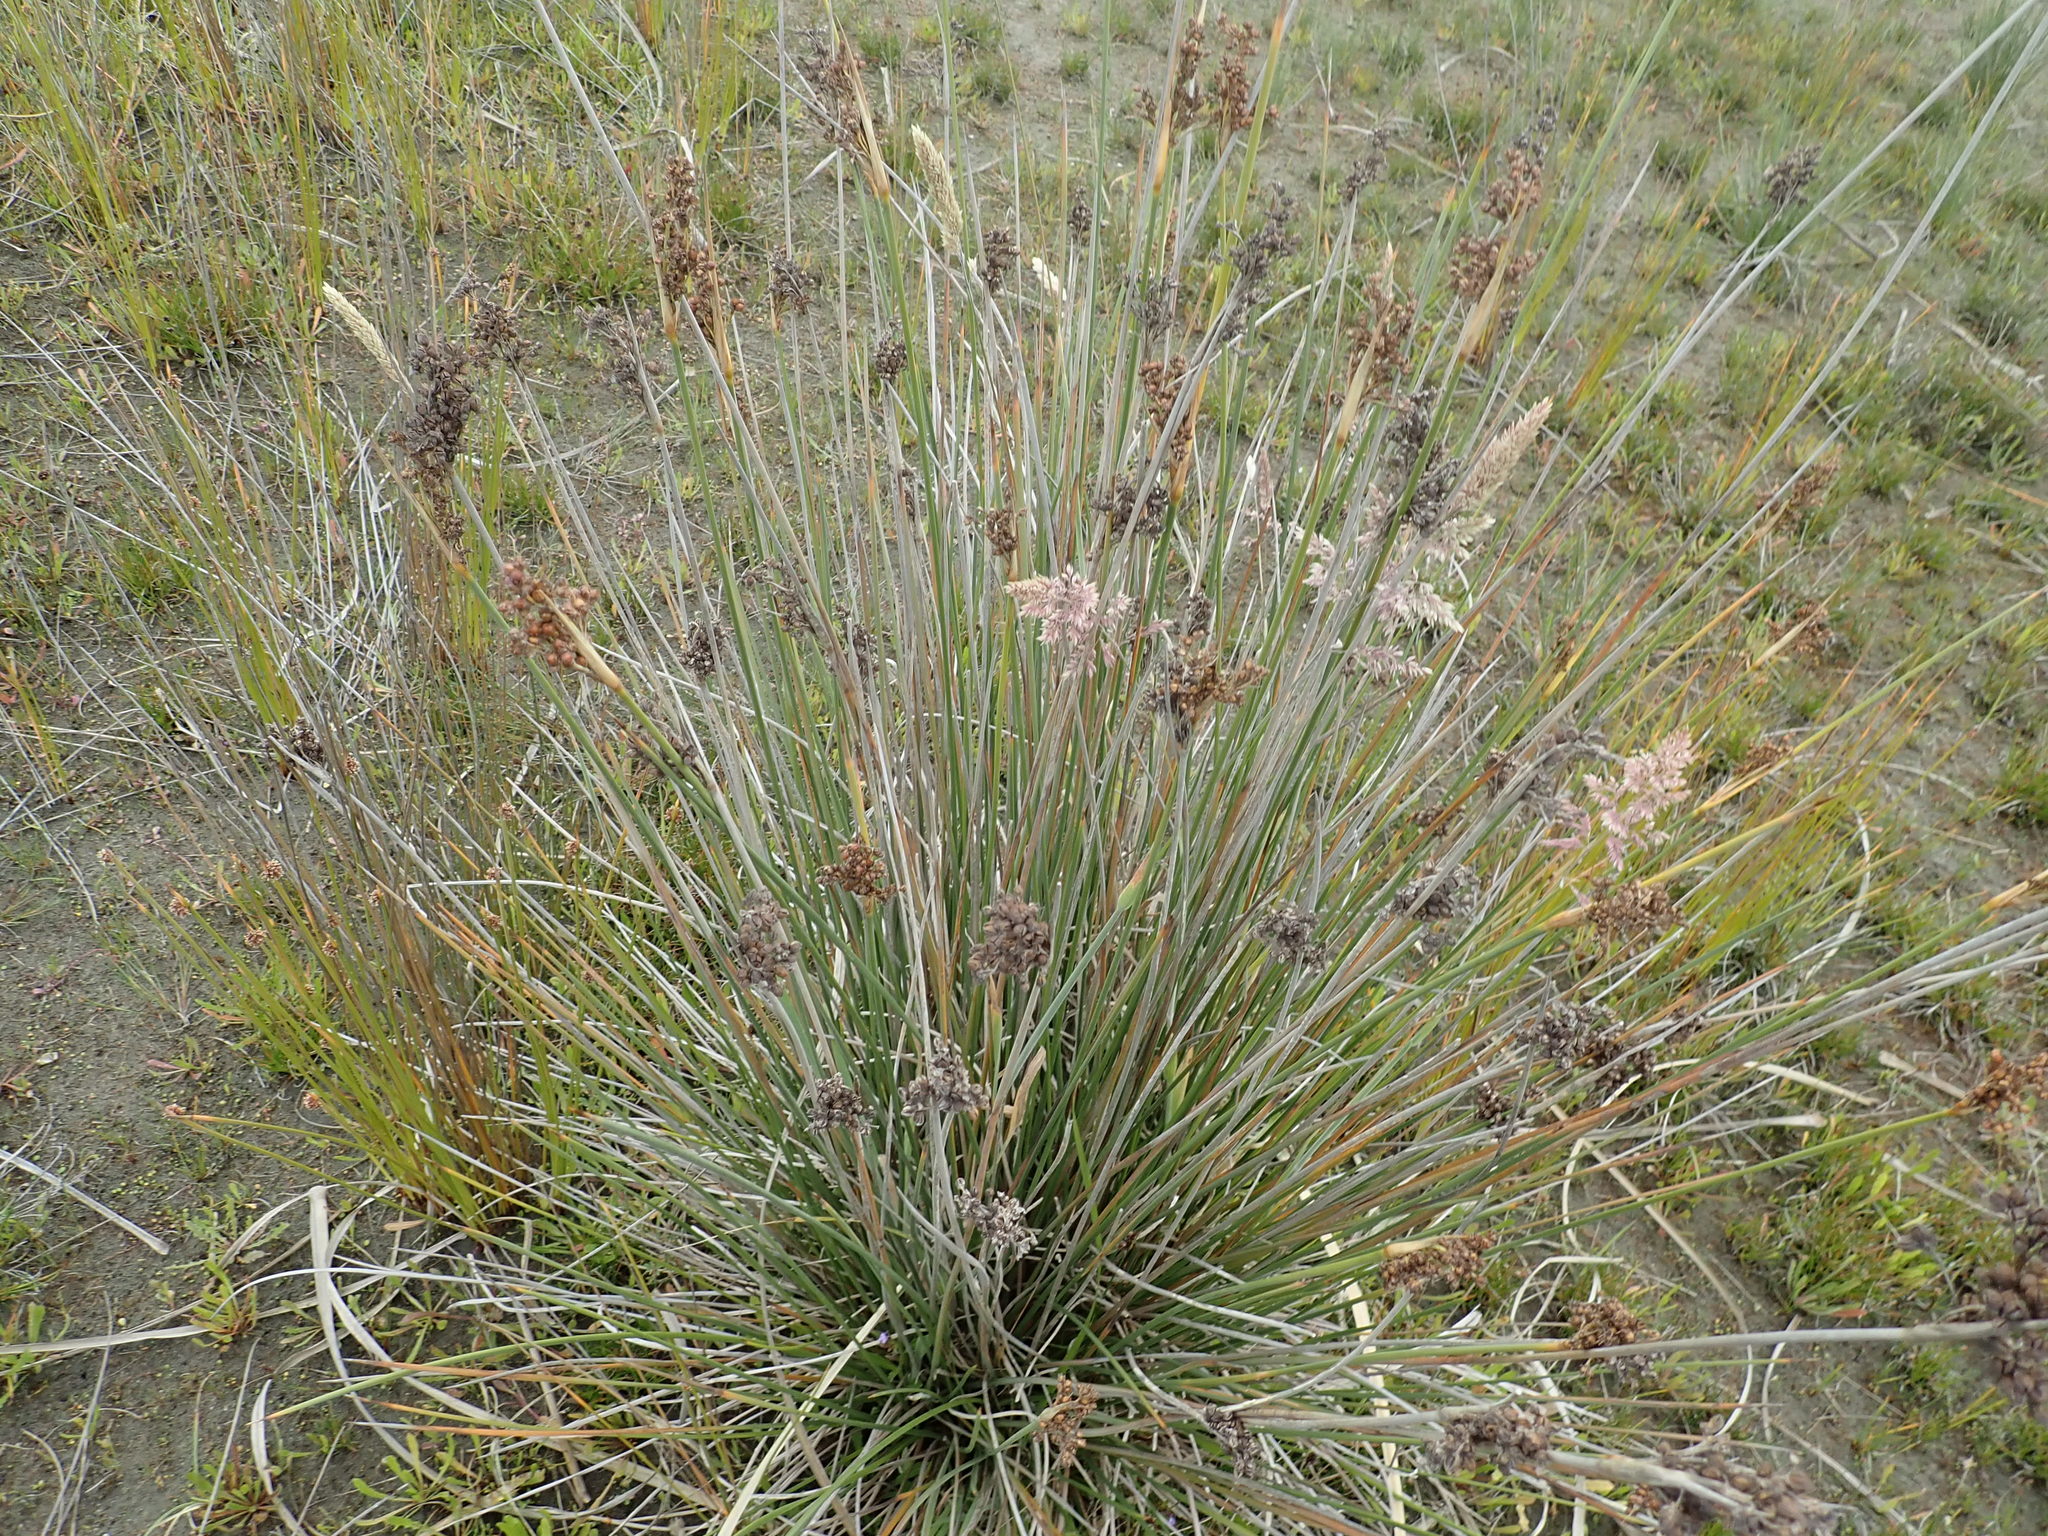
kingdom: Plantae
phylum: Tracheophyta
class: Liliopsida
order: Poales
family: Poaceae
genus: Holcus
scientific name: Holcus lanatus
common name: Yorkshire-fog
